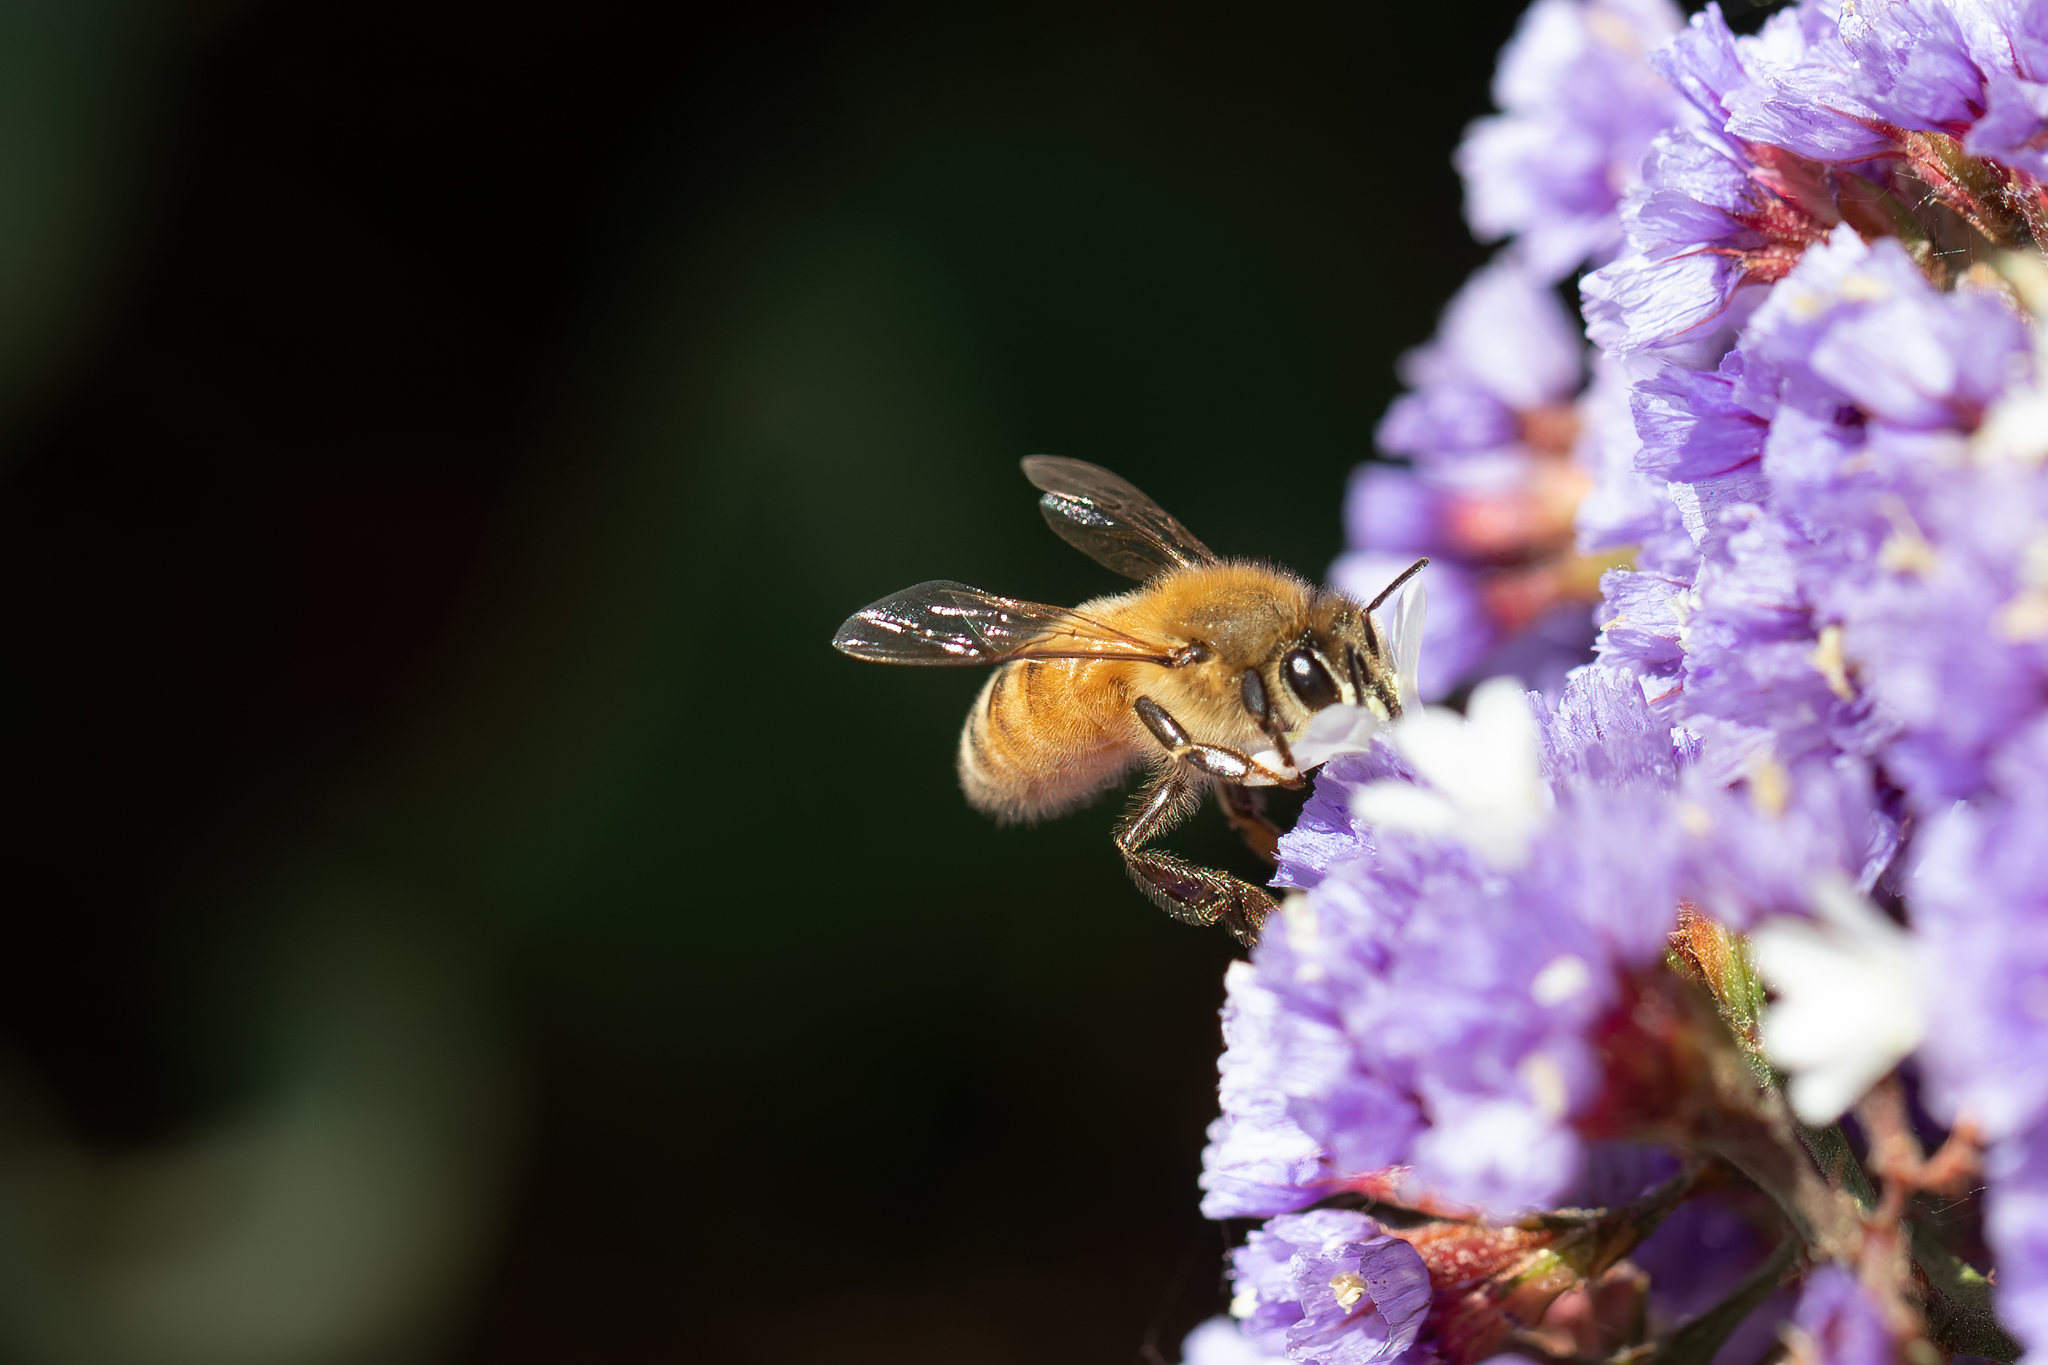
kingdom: Animalia
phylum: Arthropoda
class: Insecta
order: Hymenoptera
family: Apidae
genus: Apis
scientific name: Apis mellifera
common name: Honey bee
